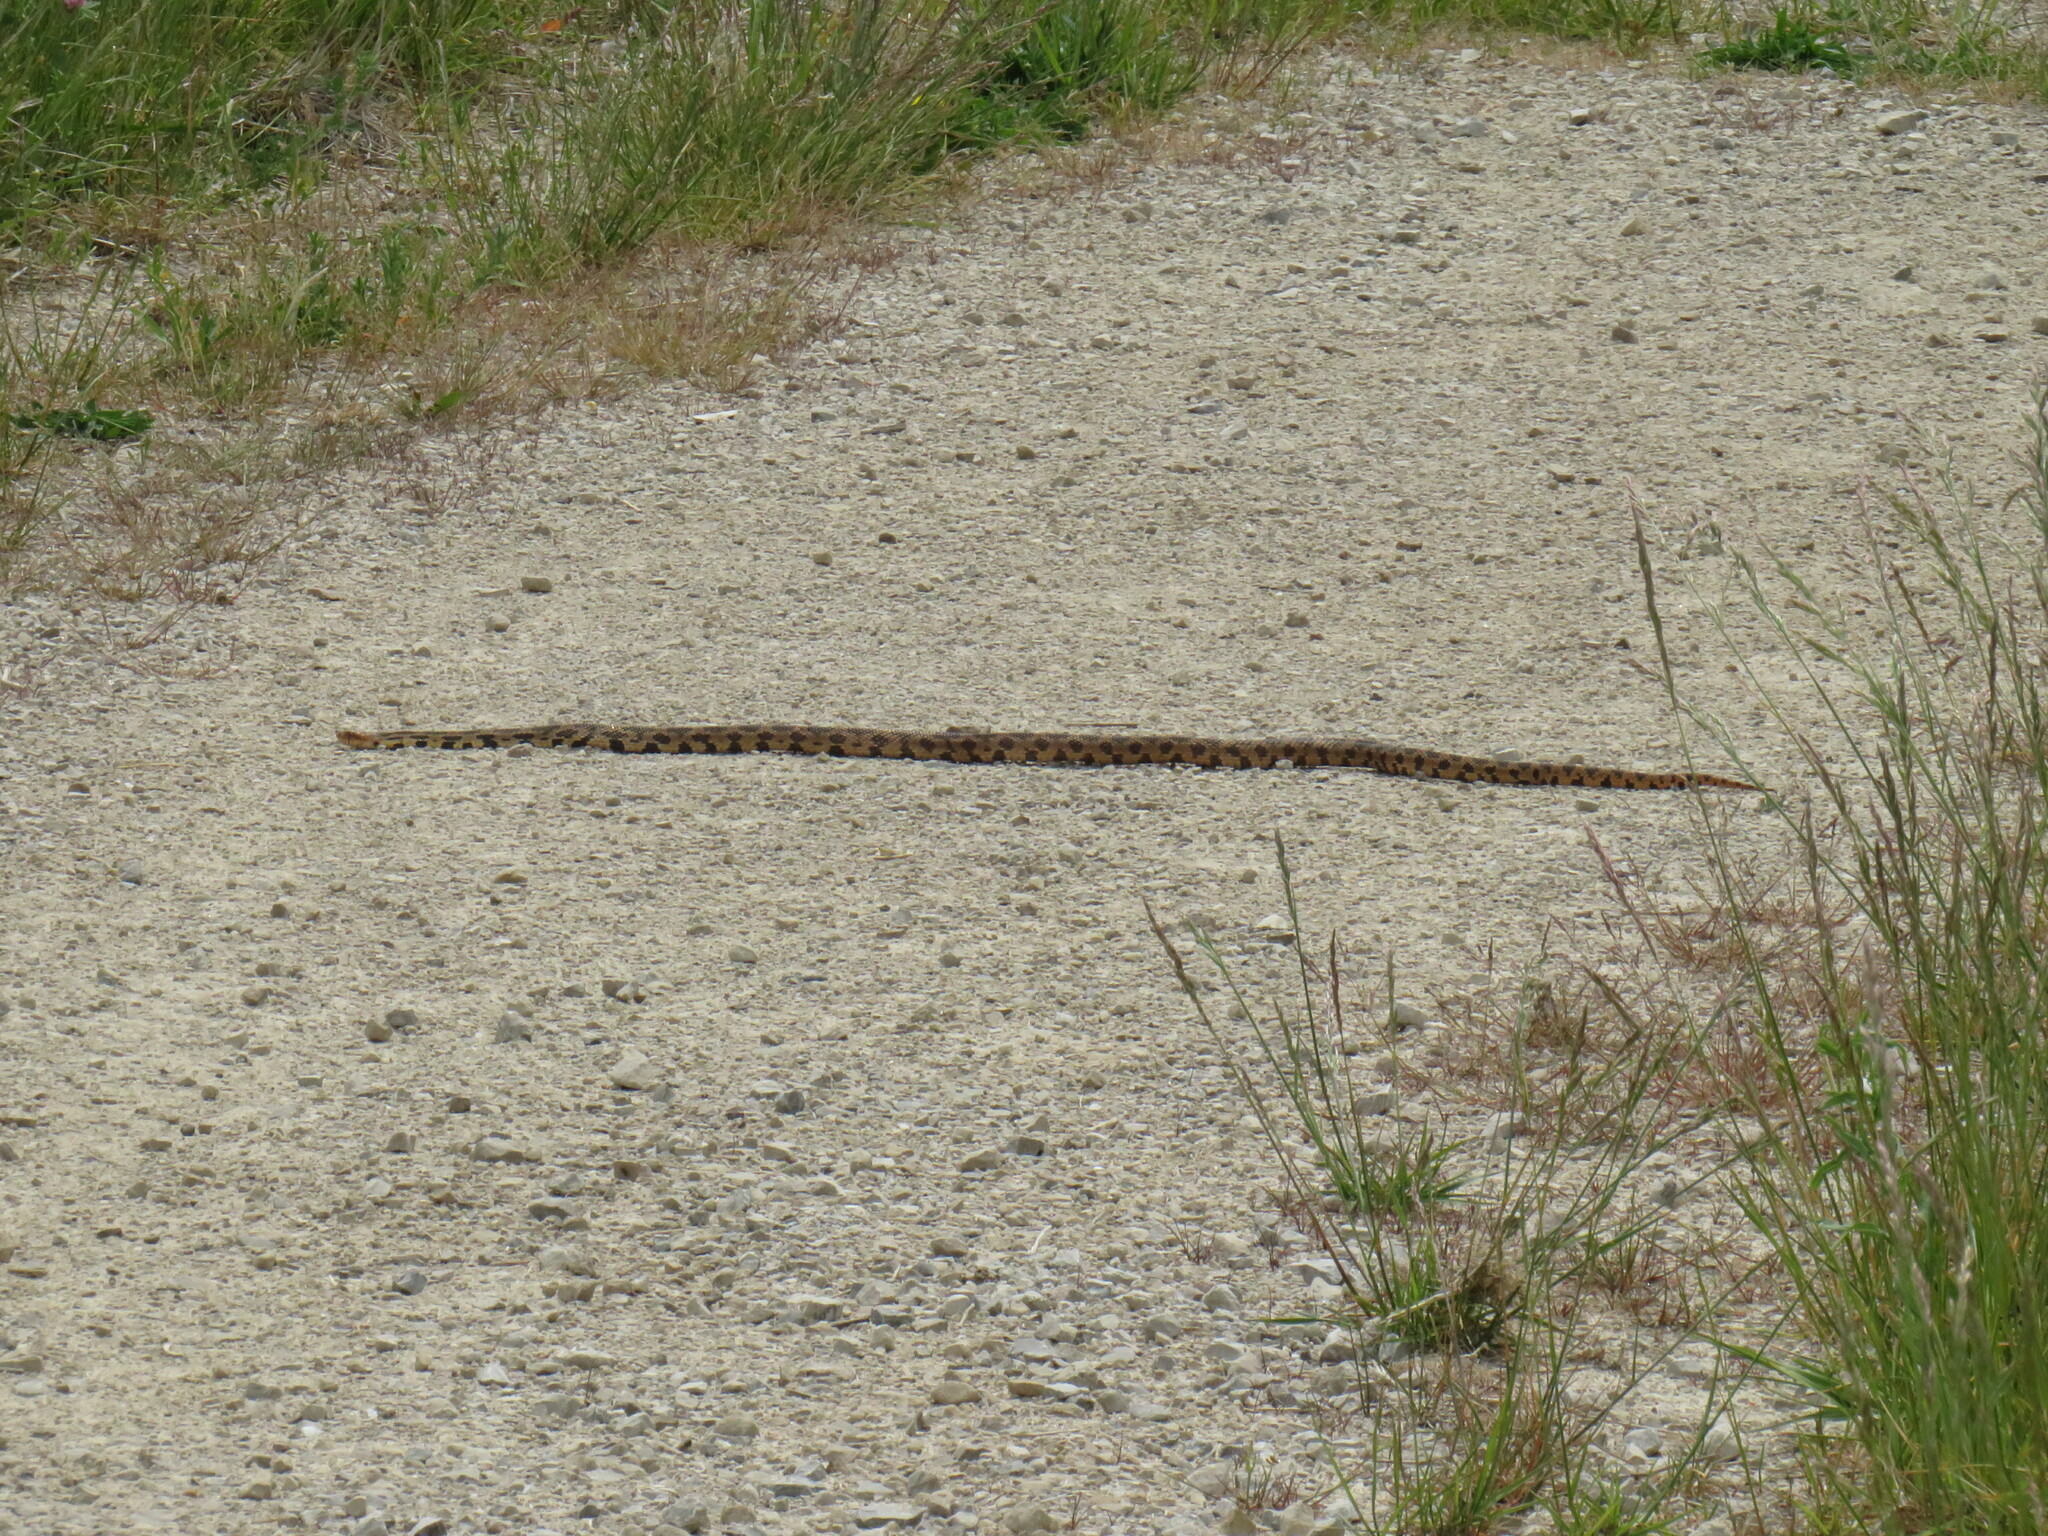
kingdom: Animalia
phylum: Chordata
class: Squamata
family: Colubridae
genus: Pantherophis
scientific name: Pantherophis vulpinus
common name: Eastern fox snake
